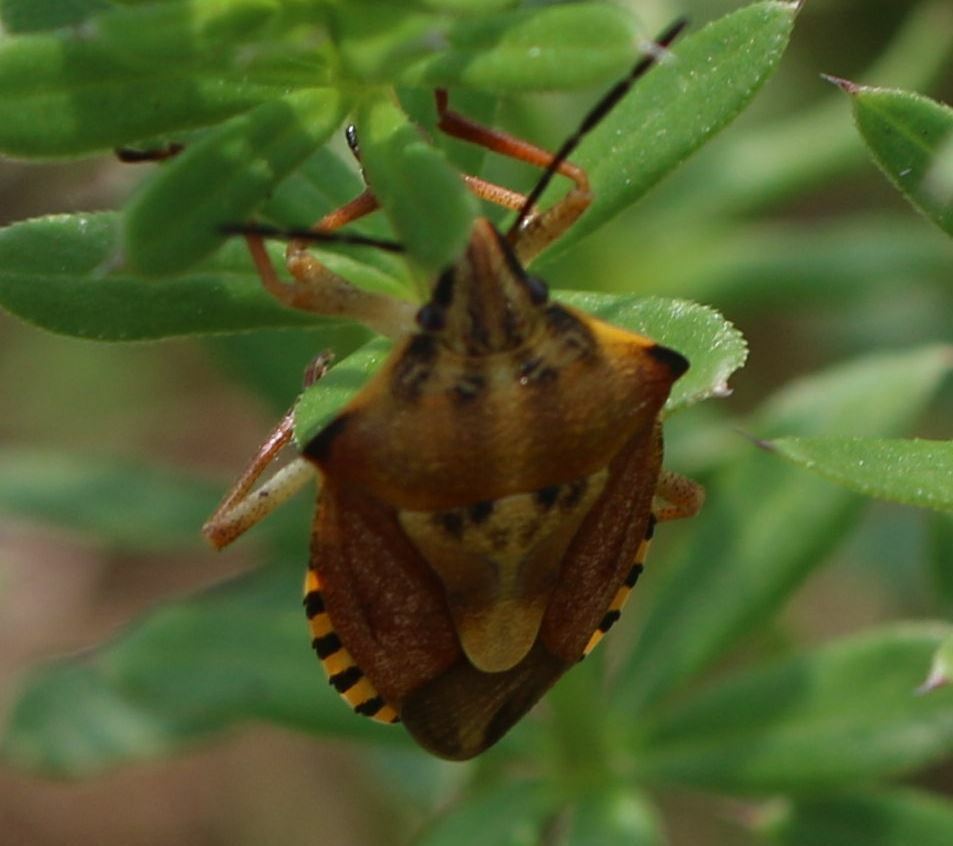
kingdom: Animalia
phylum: Arthropoda
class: Insecta
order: Hemiptera
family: Pentatomidae
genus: Carpocoris
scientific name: Carpocoris purpureipennis
